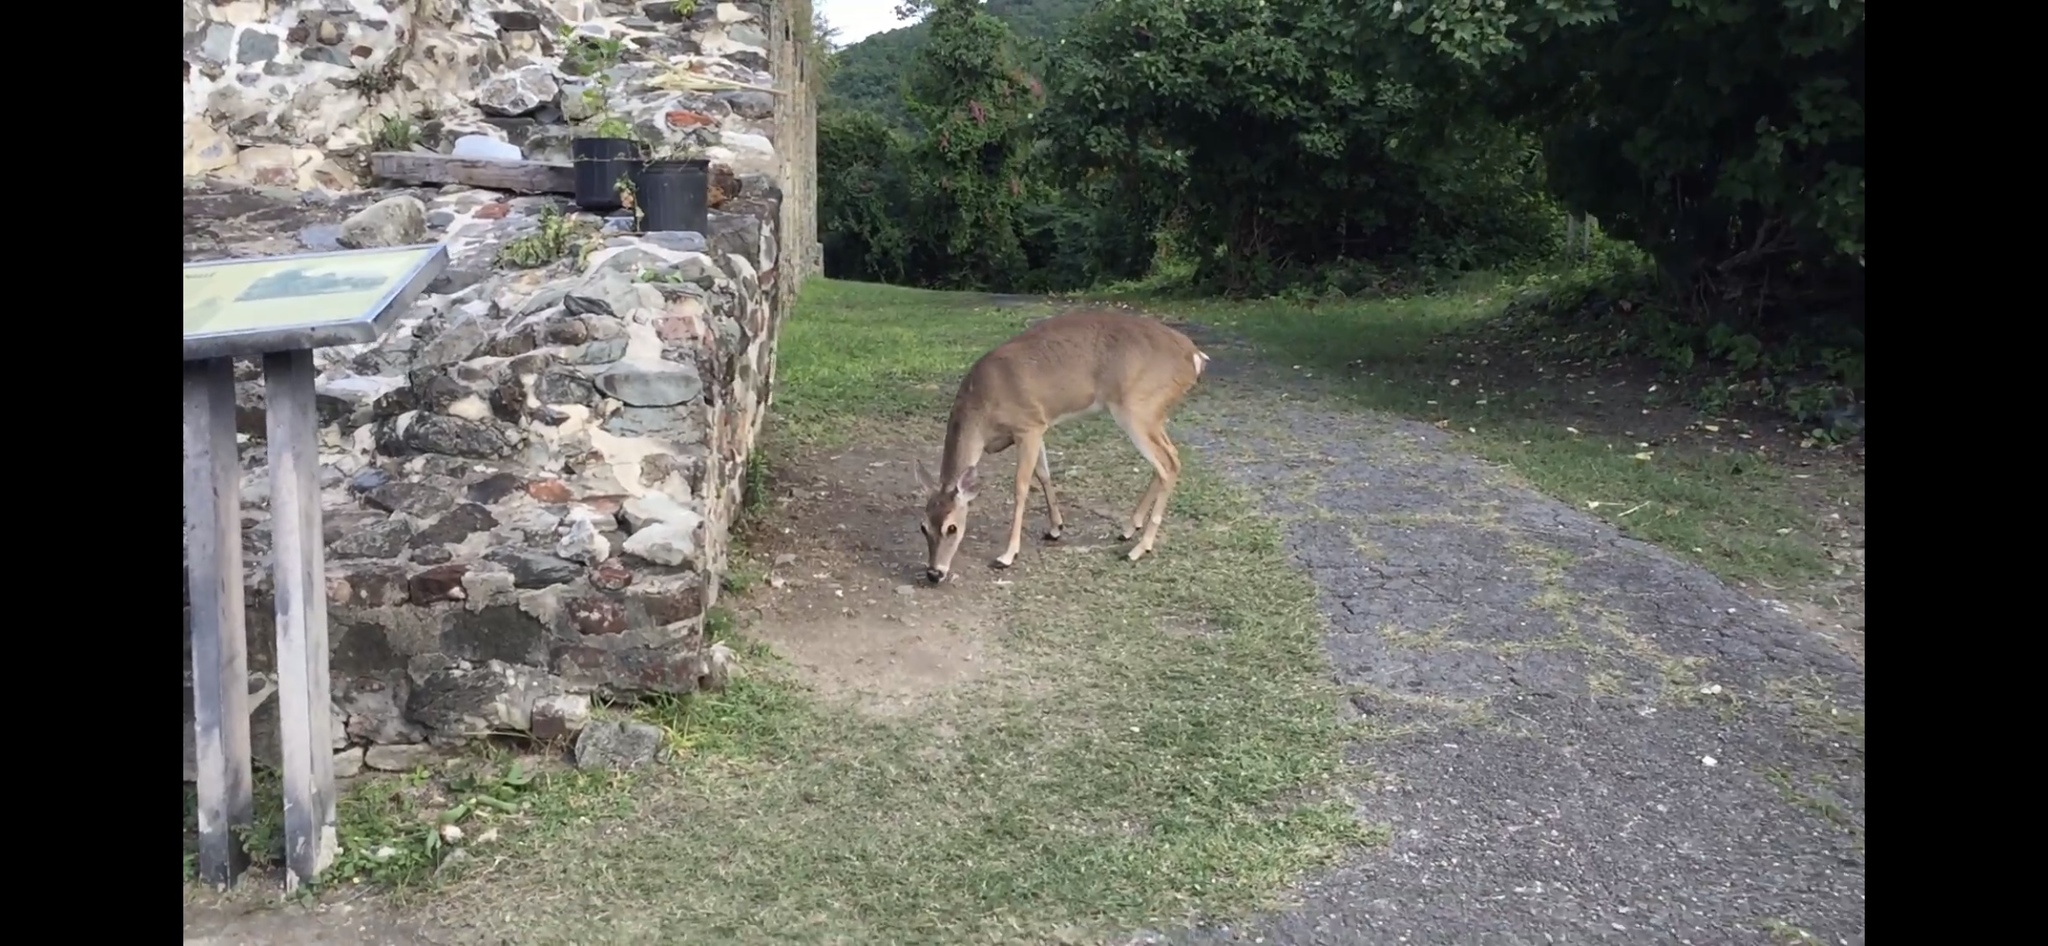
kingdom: Animalia
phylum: Chordata
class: Mammalia
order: Artiodactyla
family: Cervidae
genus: Odocoileus
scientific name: Odocoileus virginianus
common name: White-tailed deer
